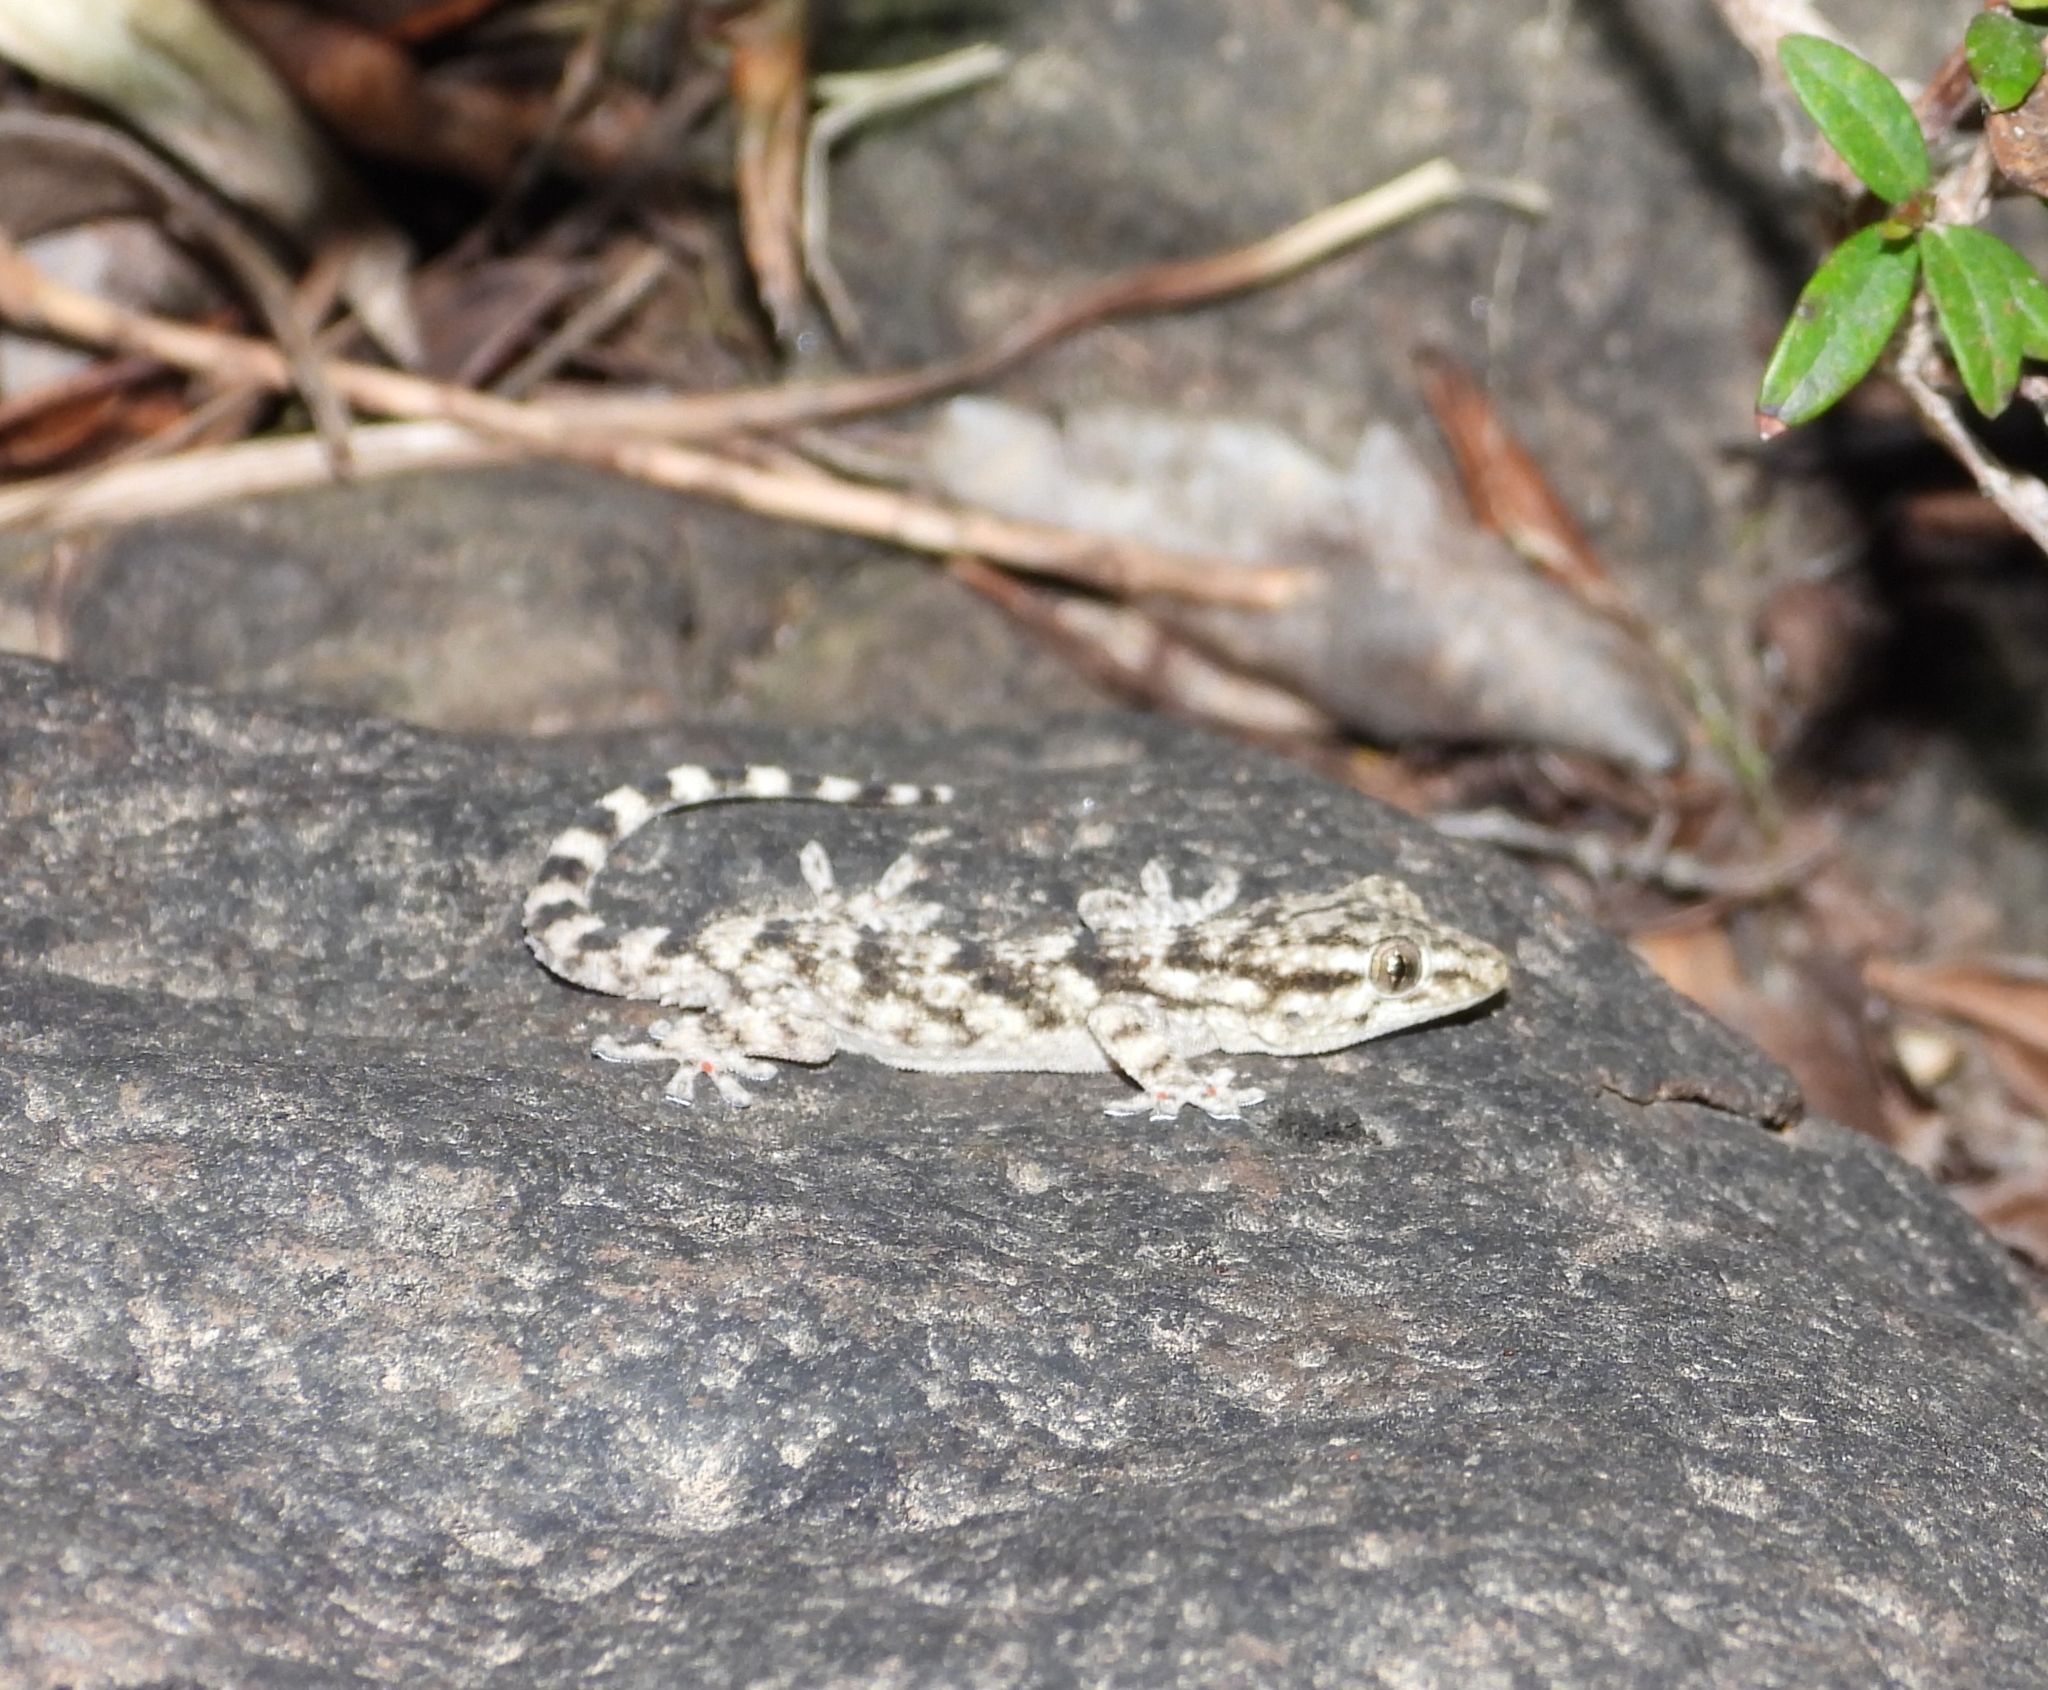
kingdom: Animalia
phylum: Chordata
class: Squamata
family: Phyllodactylidae
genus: Tarentola
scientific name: Tarentola mauritanica
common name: Moorish gecko
